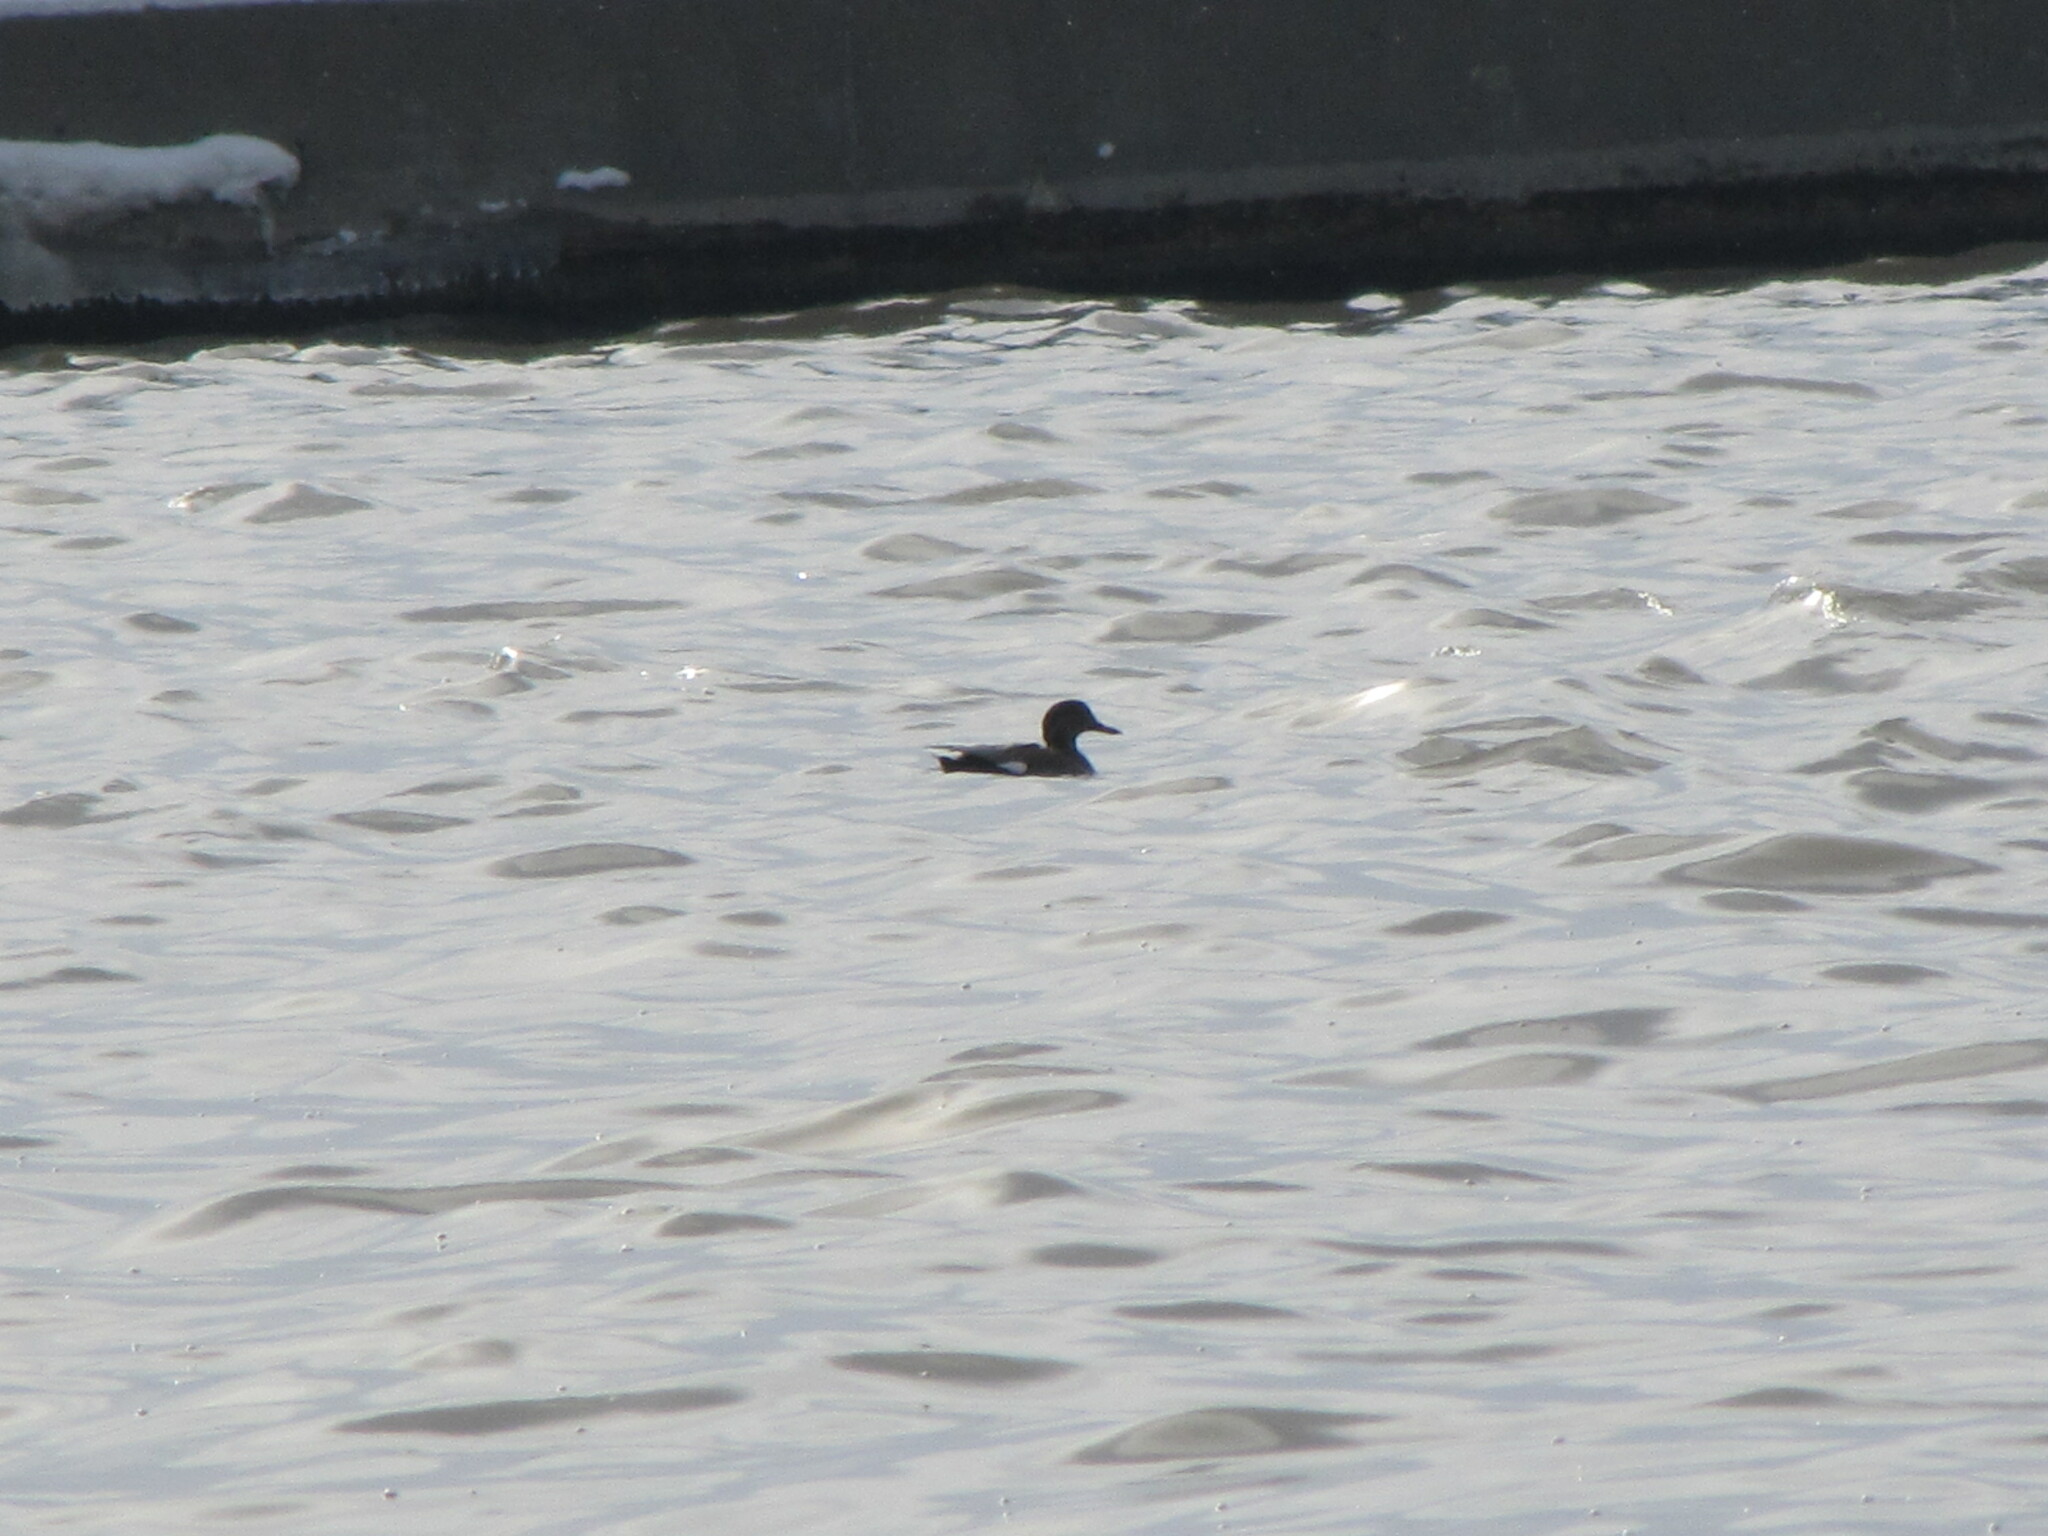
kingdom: Animalia
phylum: Chordata
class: Aves
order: Anseriformes
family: Anatidae
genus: Mareca
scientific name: Mareca strepera
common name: Gadwall
